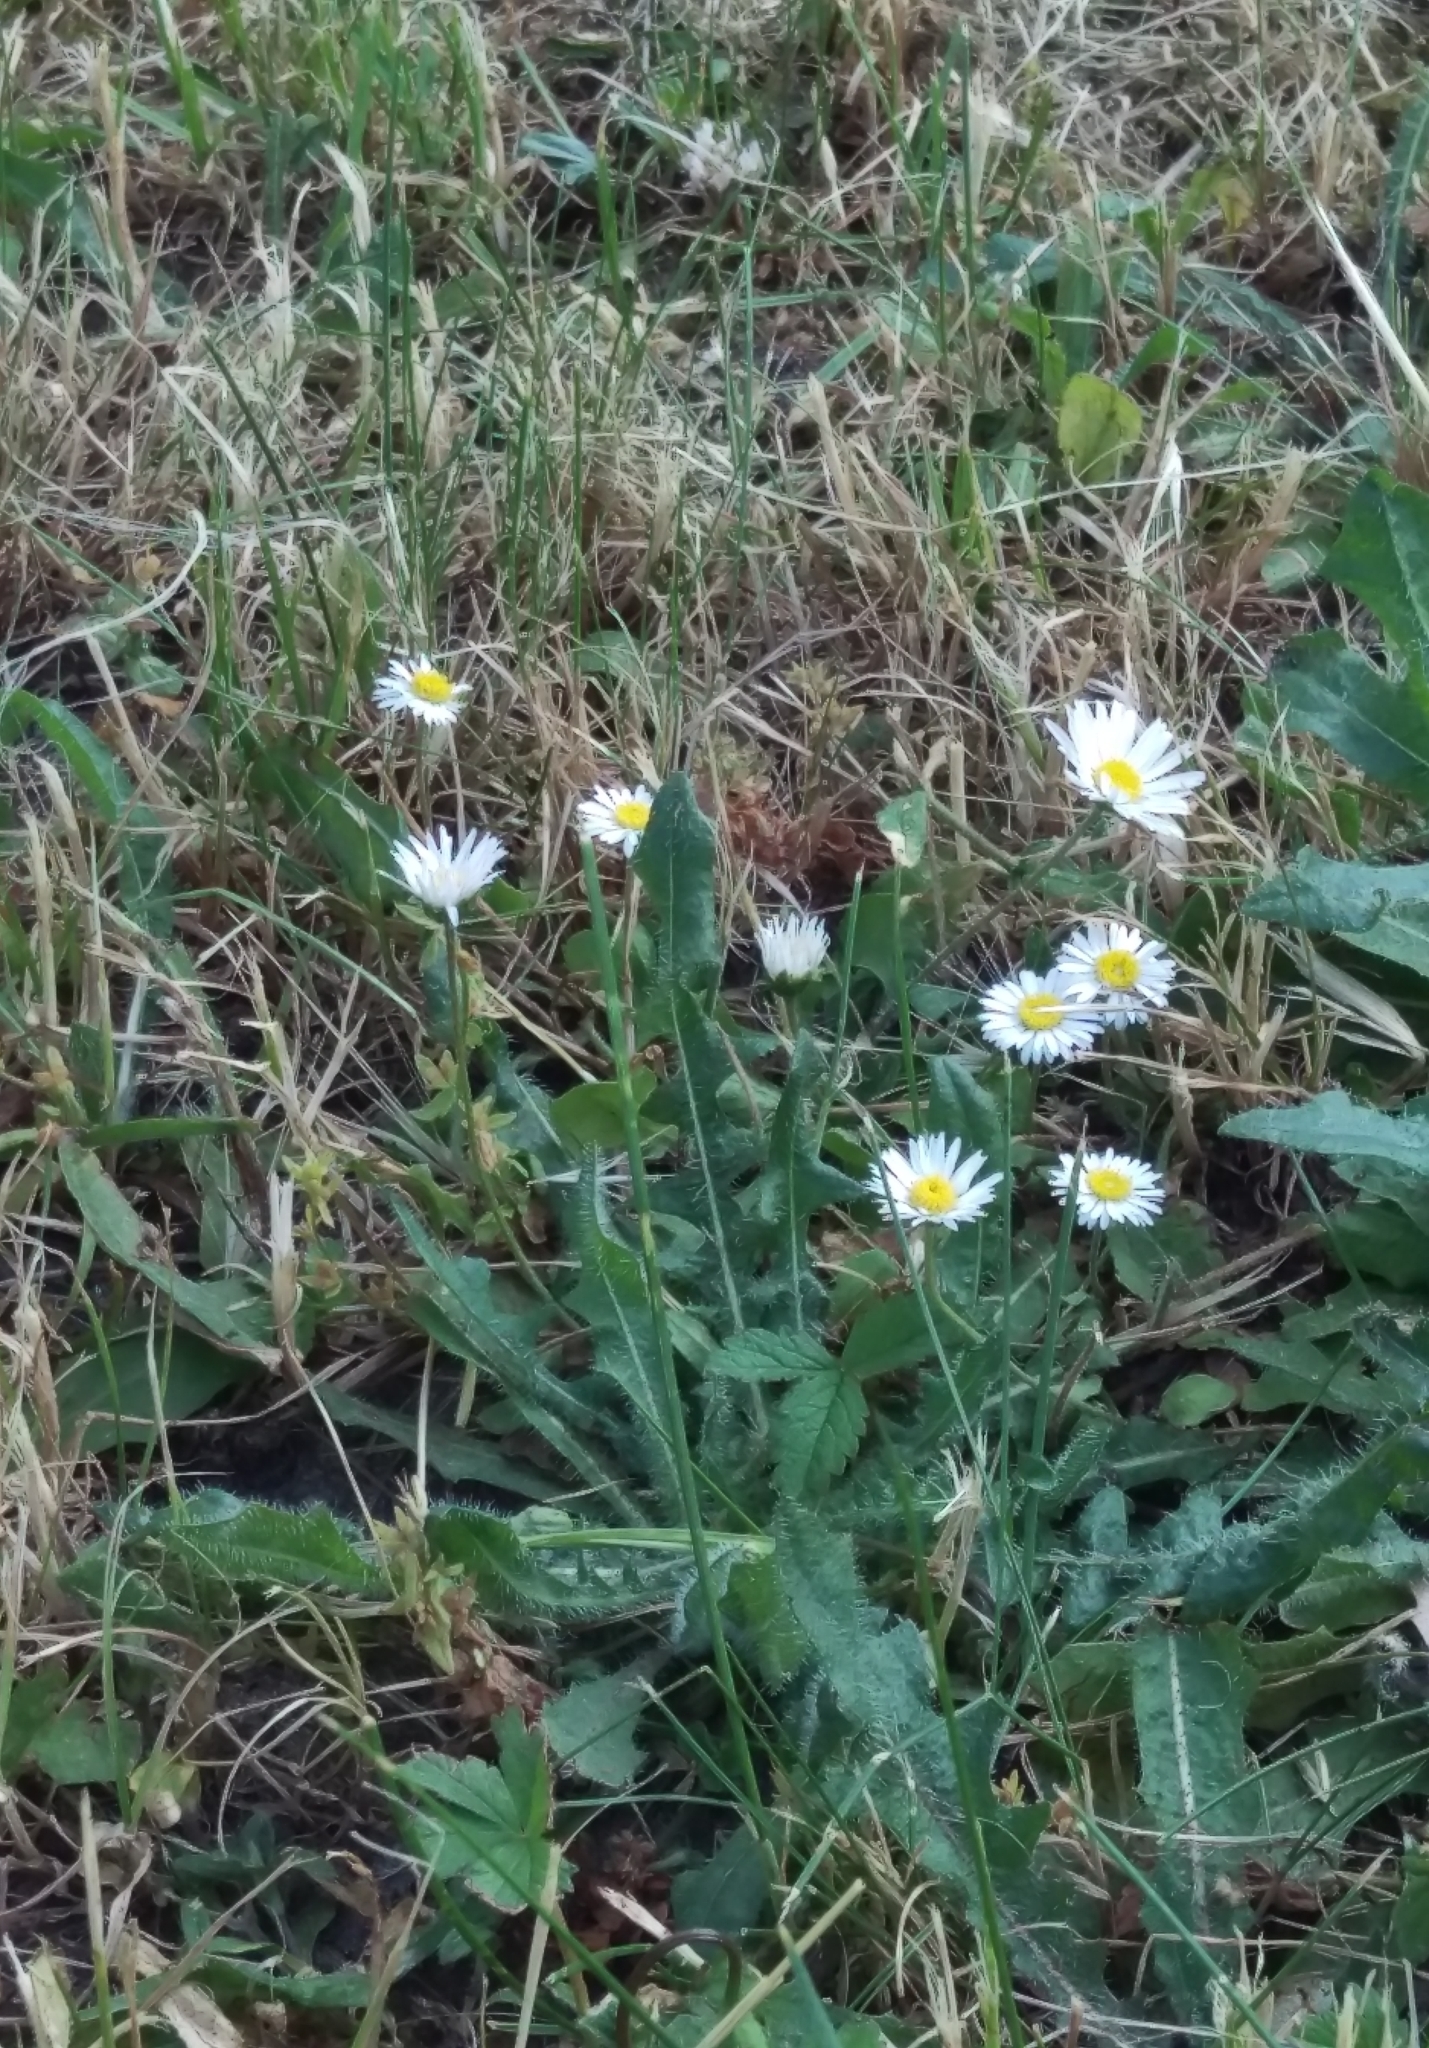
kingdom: Plantae
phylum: Tracheophyta
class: Magnoliopsida
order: Asterales
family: Asteraceae
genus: Bellis
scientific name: Bellis perennis
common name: Lawndaisy
